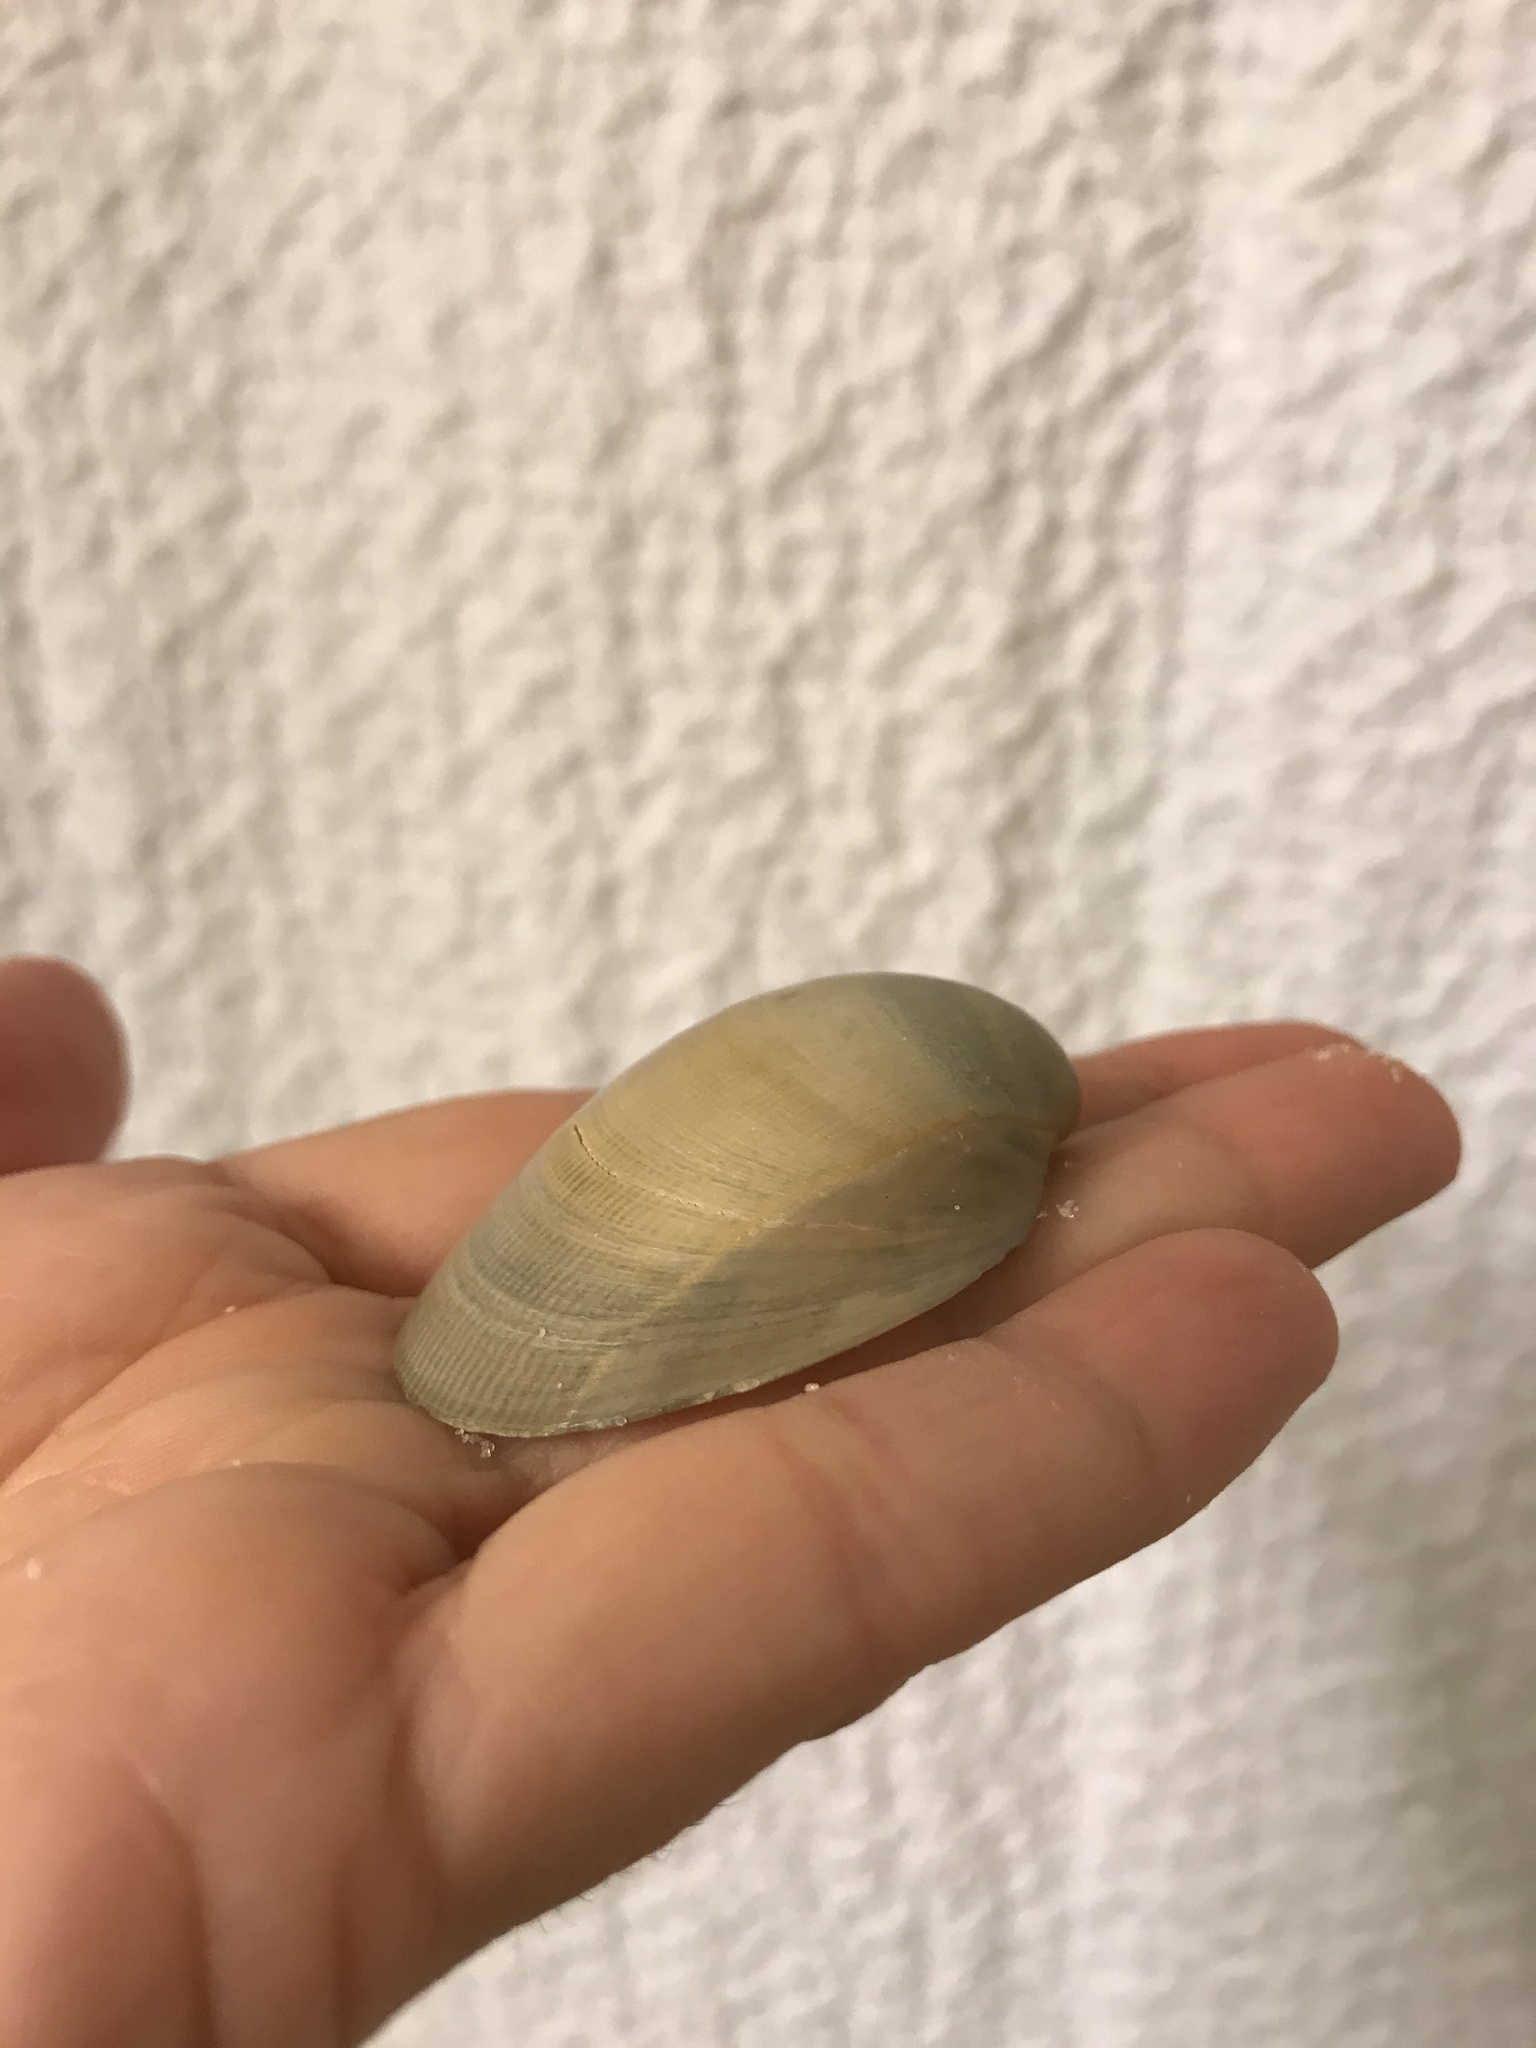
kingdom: Animalia
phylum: Mollusca
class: Bivalvia
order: Cardiida
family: Cardiidae
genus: Laevicardium
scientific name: Laevicardium serratum
